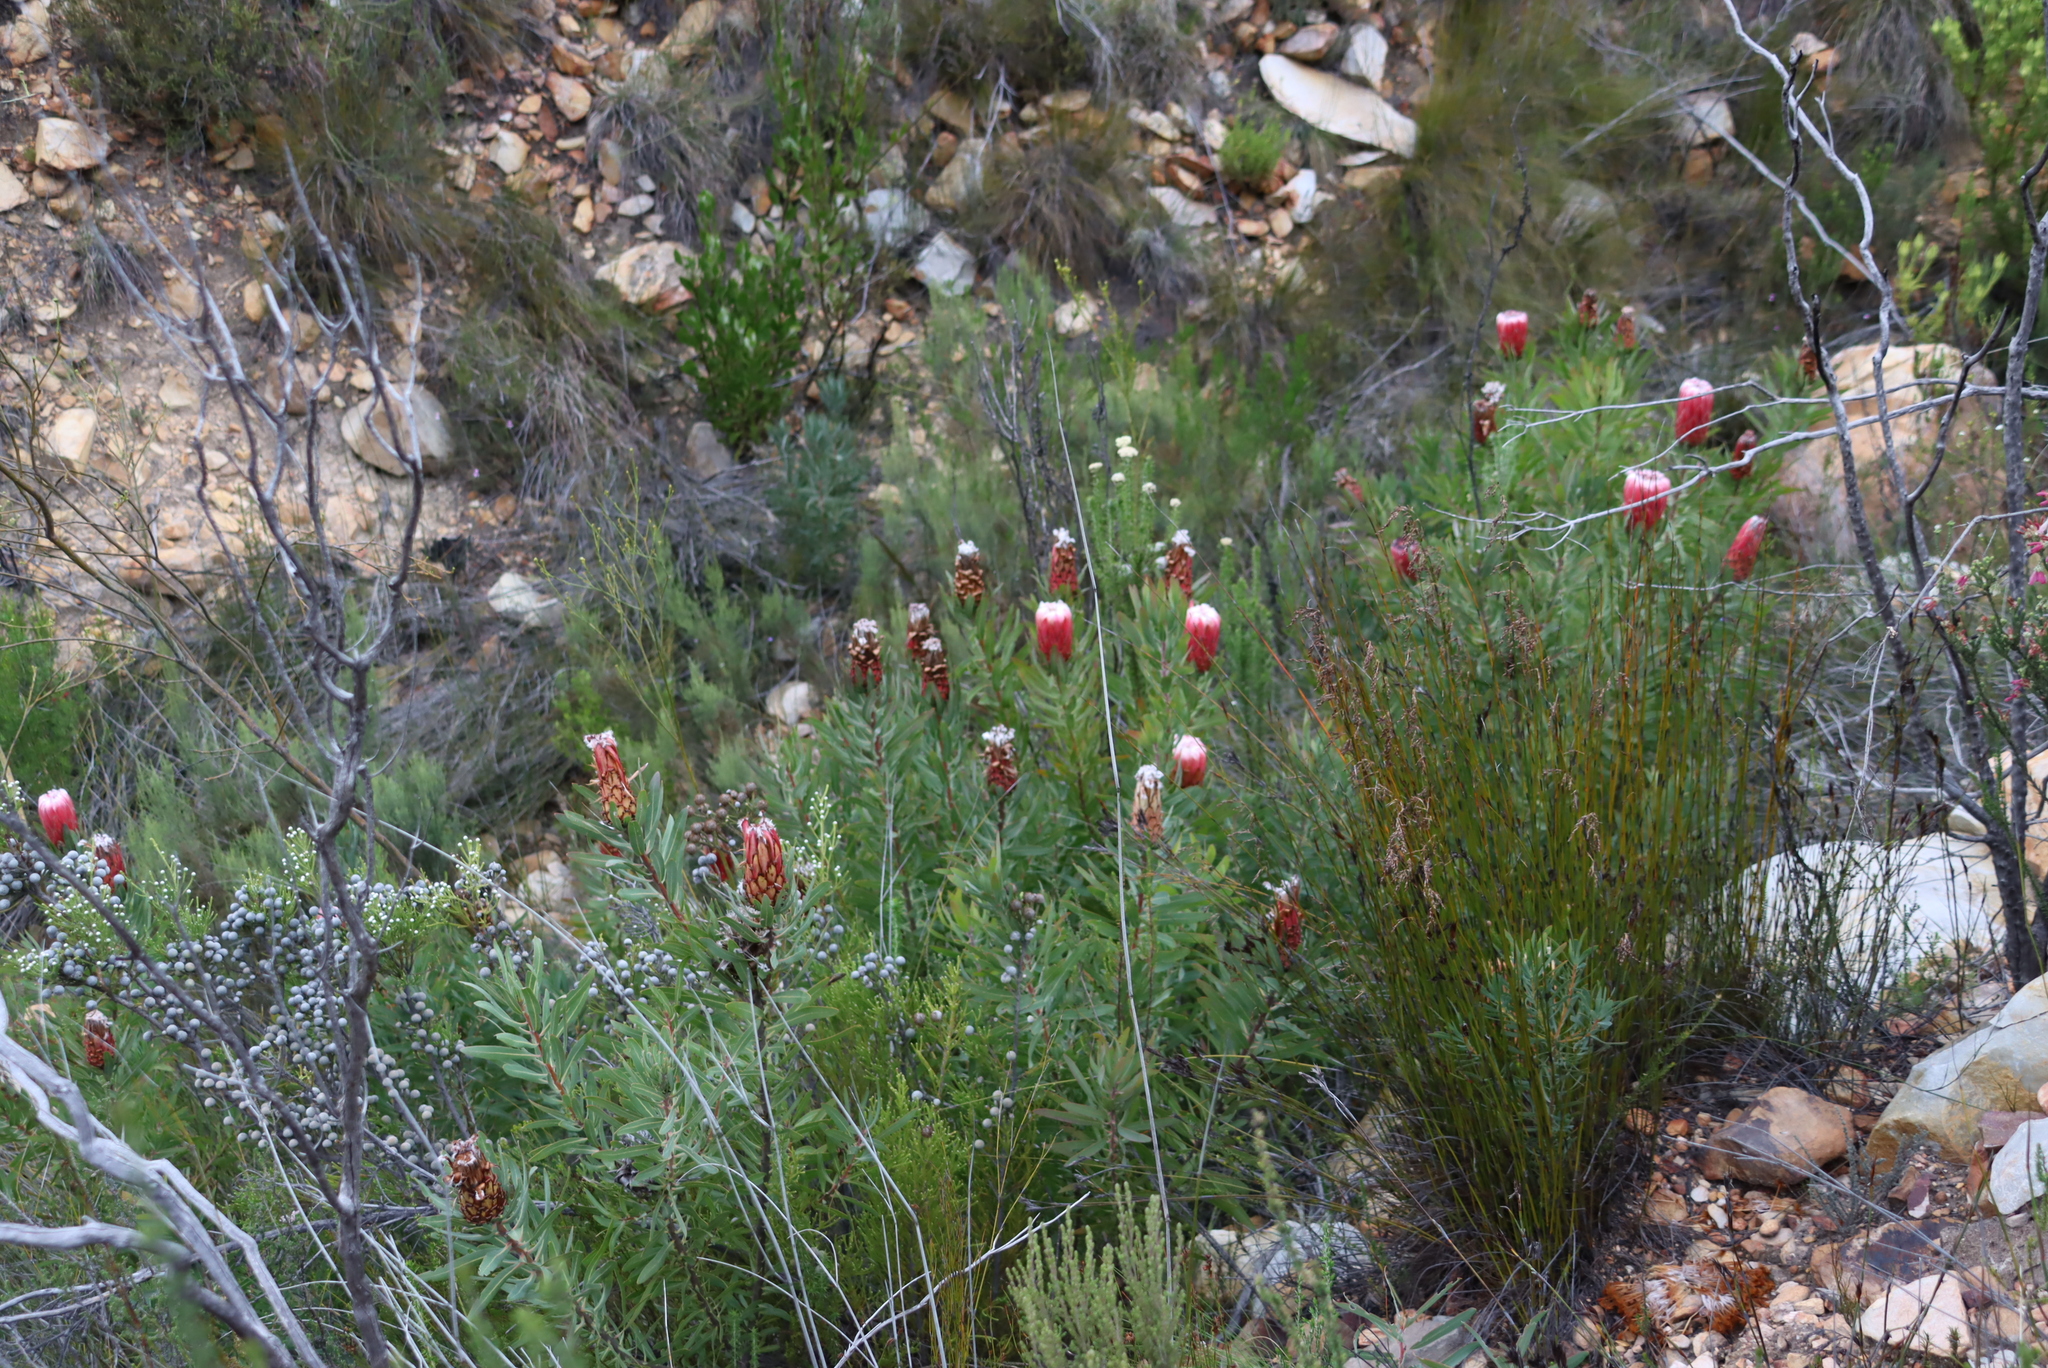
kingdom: Plantae
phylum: Tracheophyta
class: Magnoliopsida
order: Proteales
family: Proteaceae
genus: Protea
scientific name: Protea neriifolia
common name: Blue sugarbush
